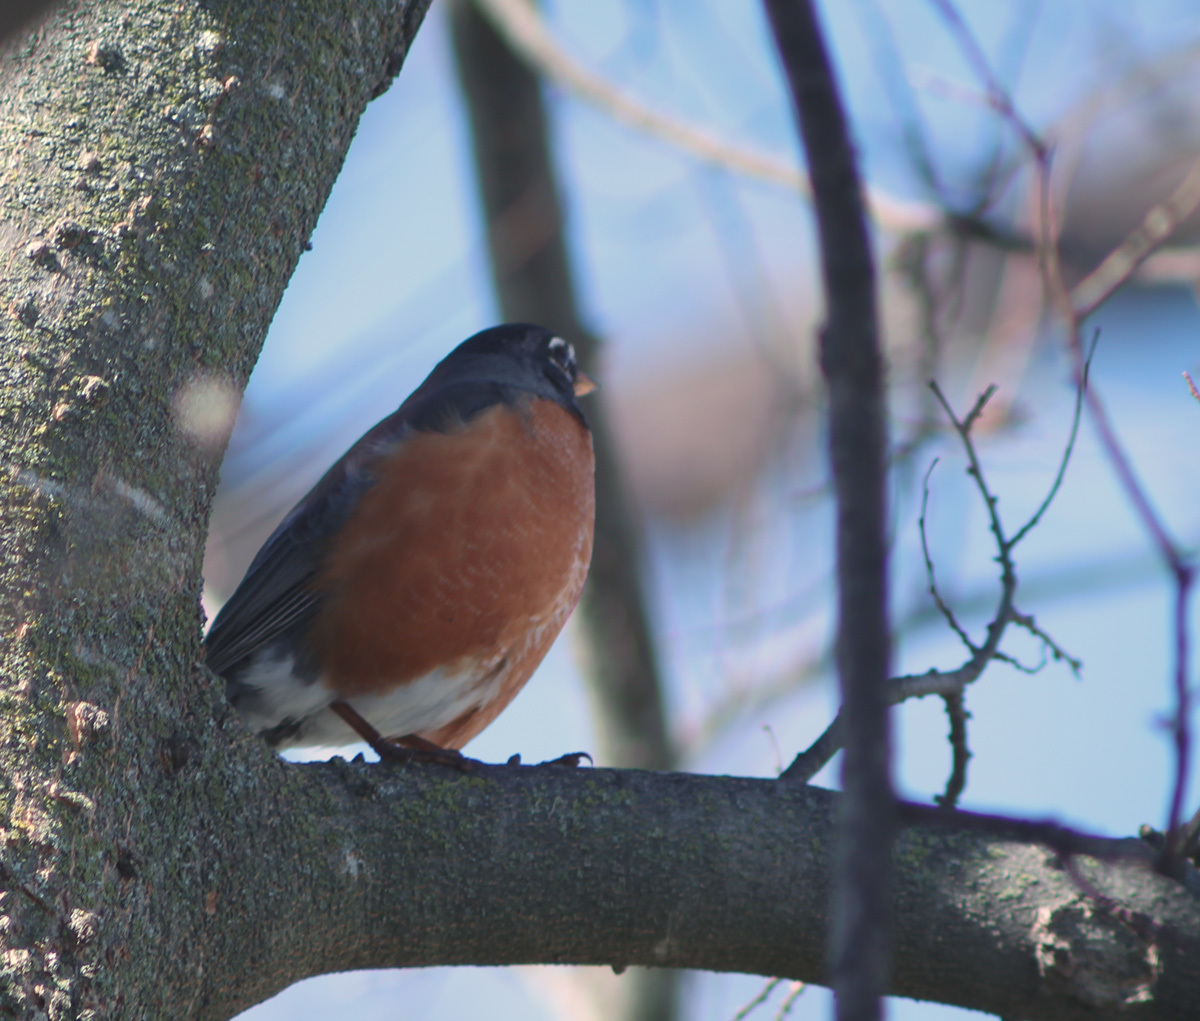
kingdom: Animalia
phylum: Chordata
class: Aves
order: Passeriformes
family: Turdidae
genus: Turdus
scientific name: Turdus migratorius
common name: American robin
